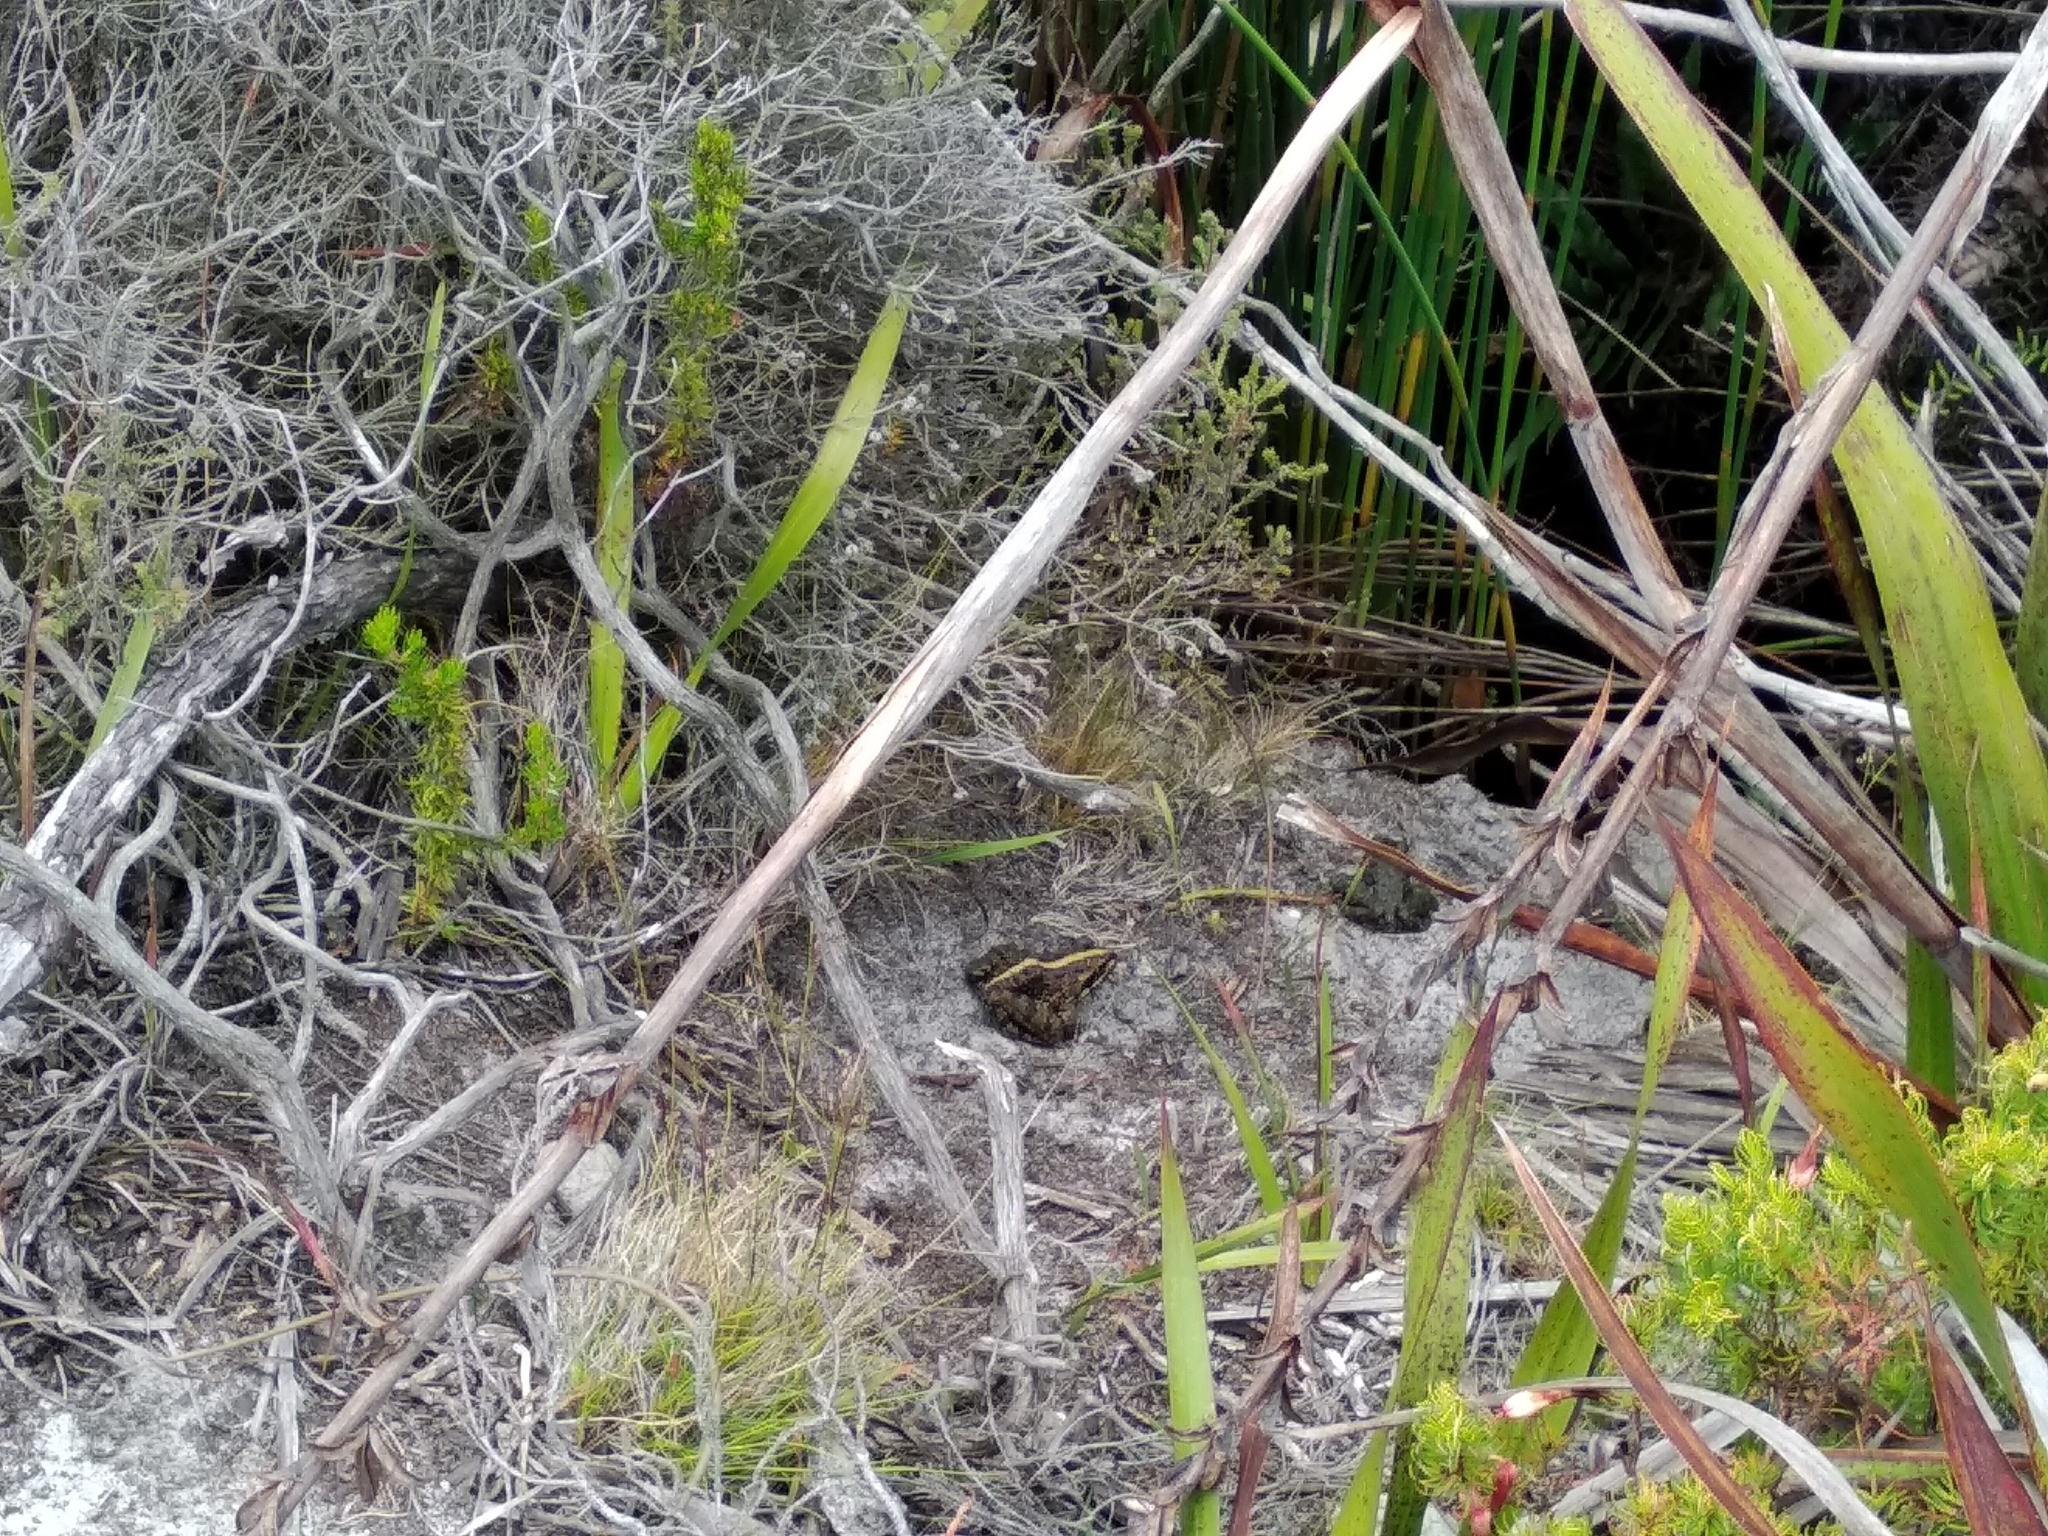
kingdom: Animalia
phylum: Chordata
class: Amphibia
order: Anura
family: Pyxicephalidae
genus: Amietia
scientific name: Amietia fuscigula
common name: Cape rana
